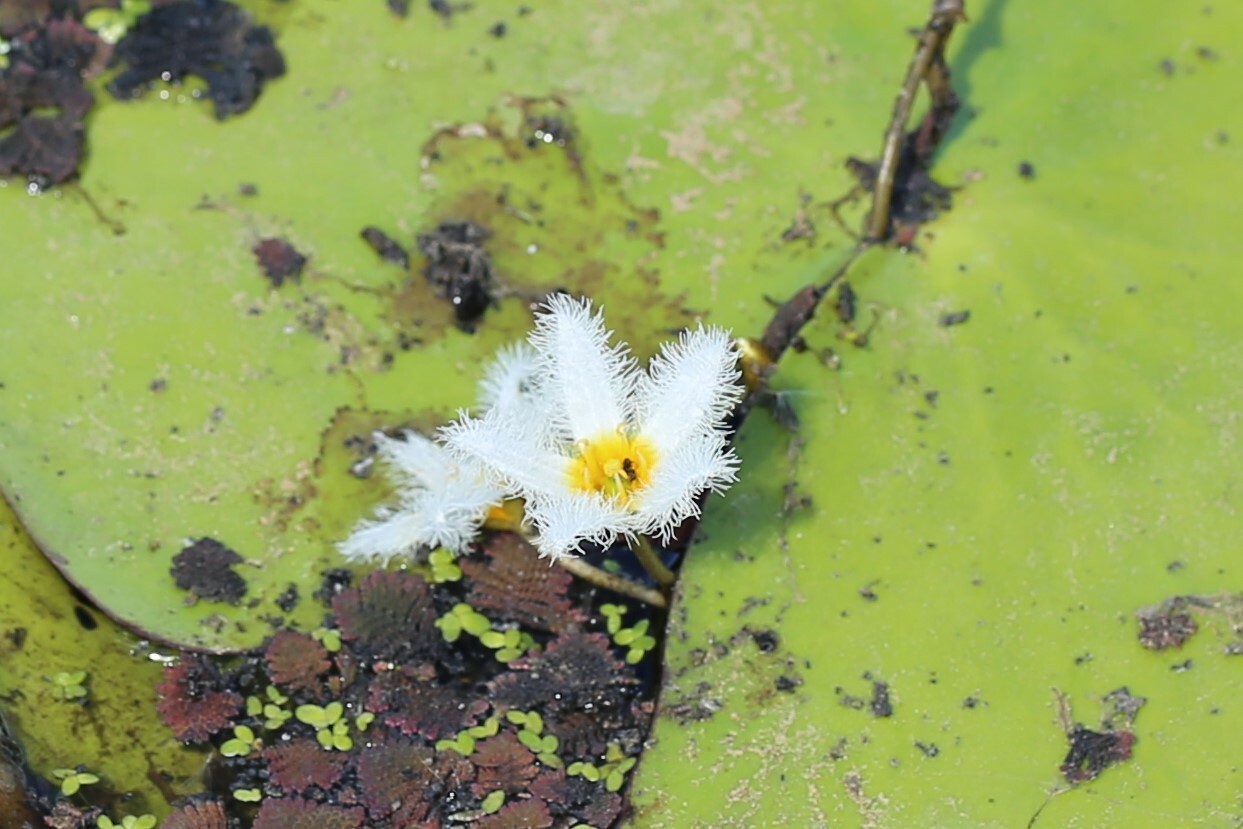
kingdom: Plantae
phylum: Tracheophyta
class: Magnoliopsida
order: Asterales
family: Menyanthaceae
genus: Nymphoides
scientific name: Nymphoides indica
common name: Water-snowflake
